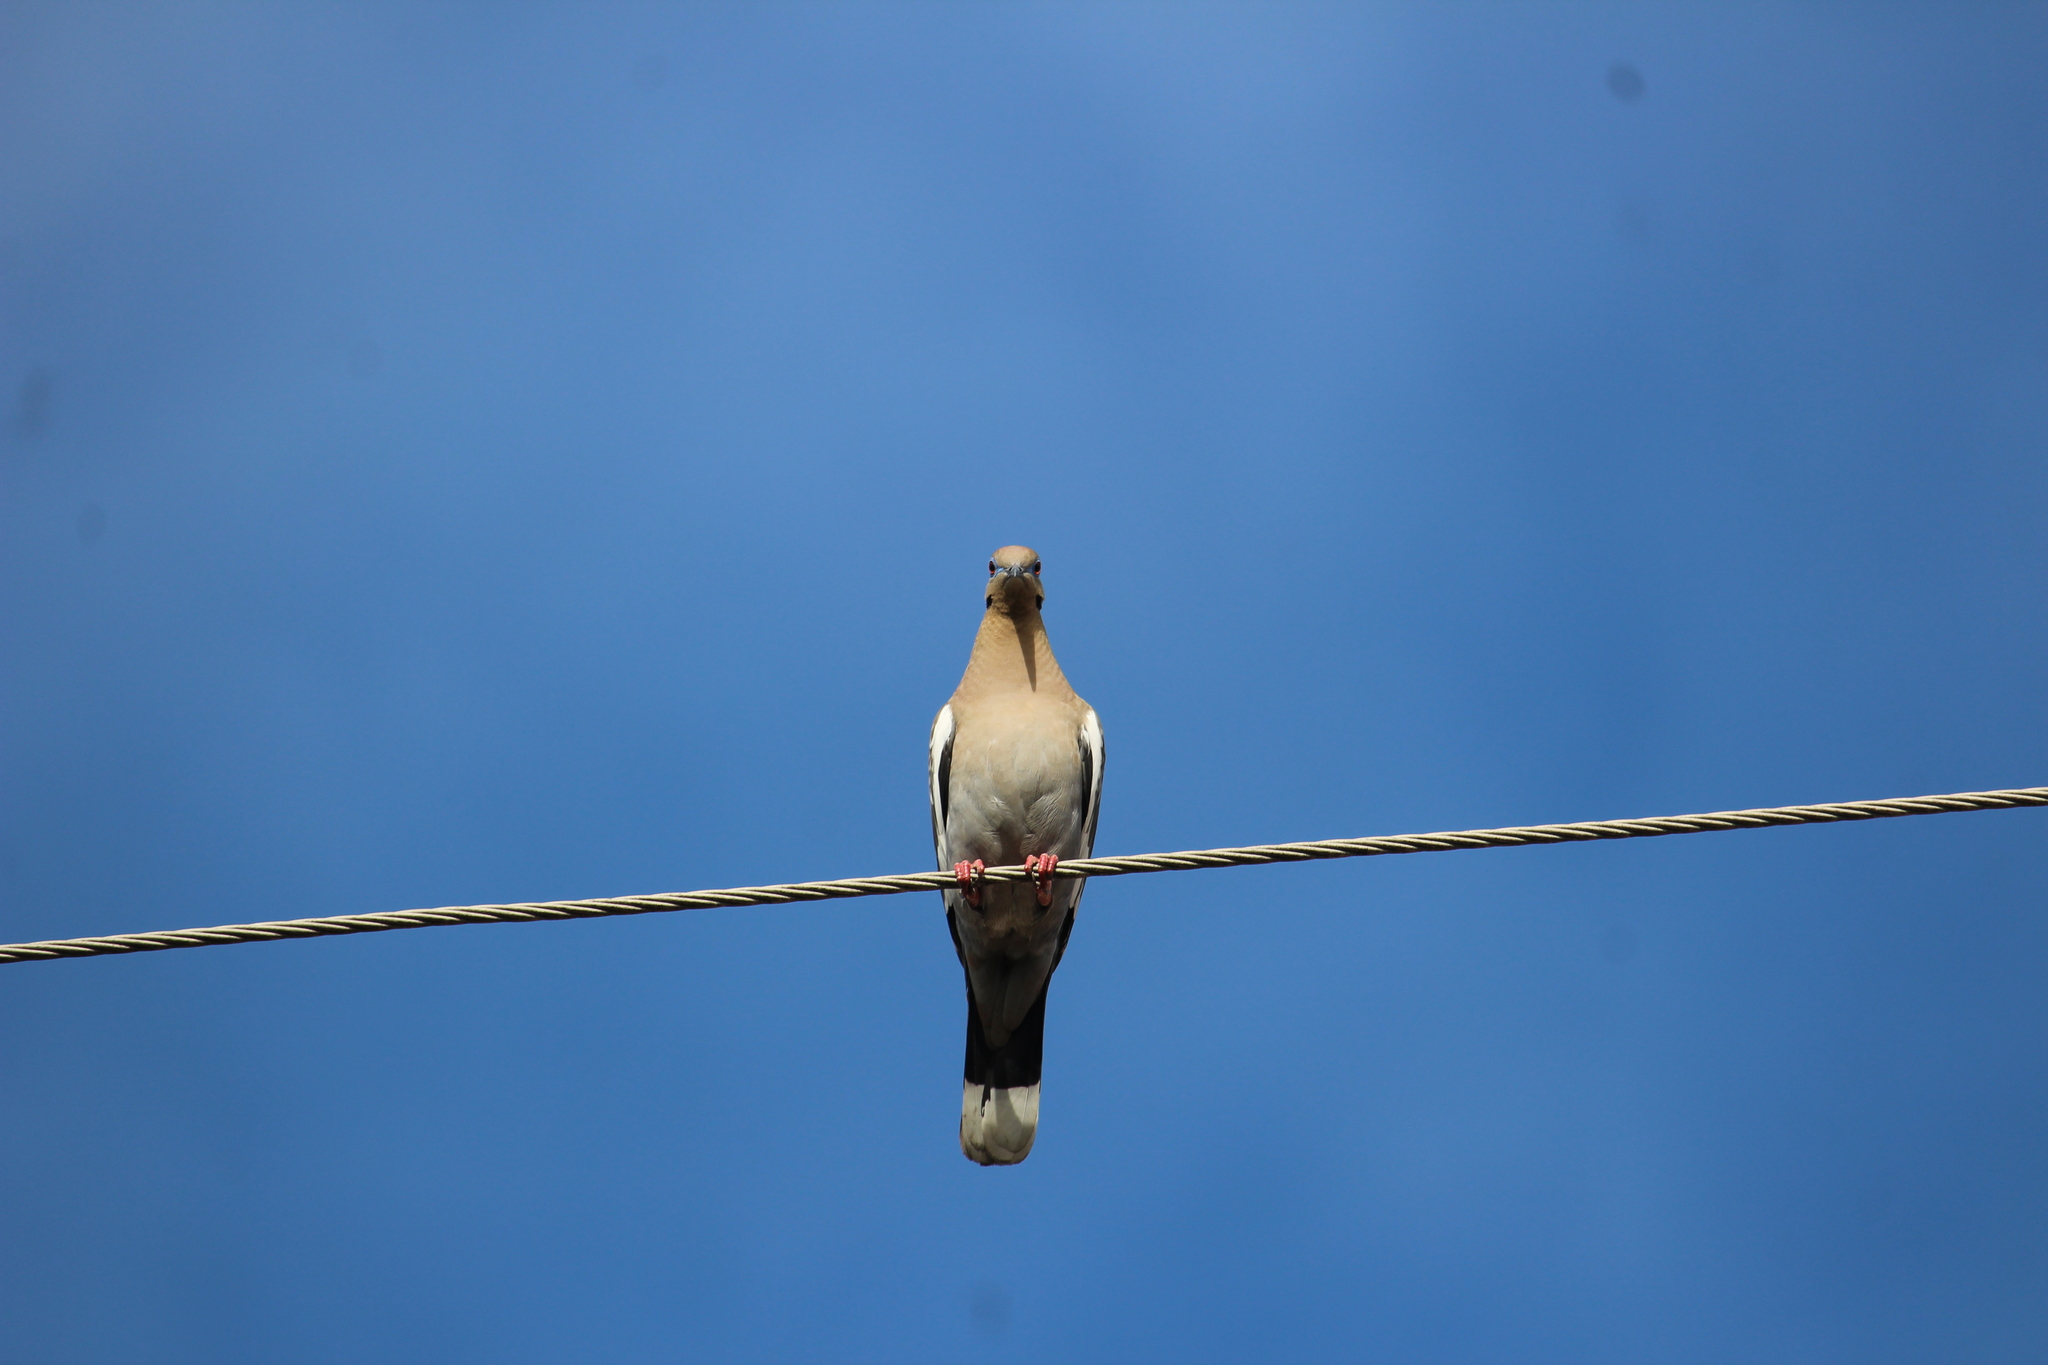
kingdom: Animalia
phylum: Chordata
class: Aves
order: Columbiformes
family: Columbidae
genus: Zenaida
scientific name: Zenaida asiatica
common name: White-winged dove
